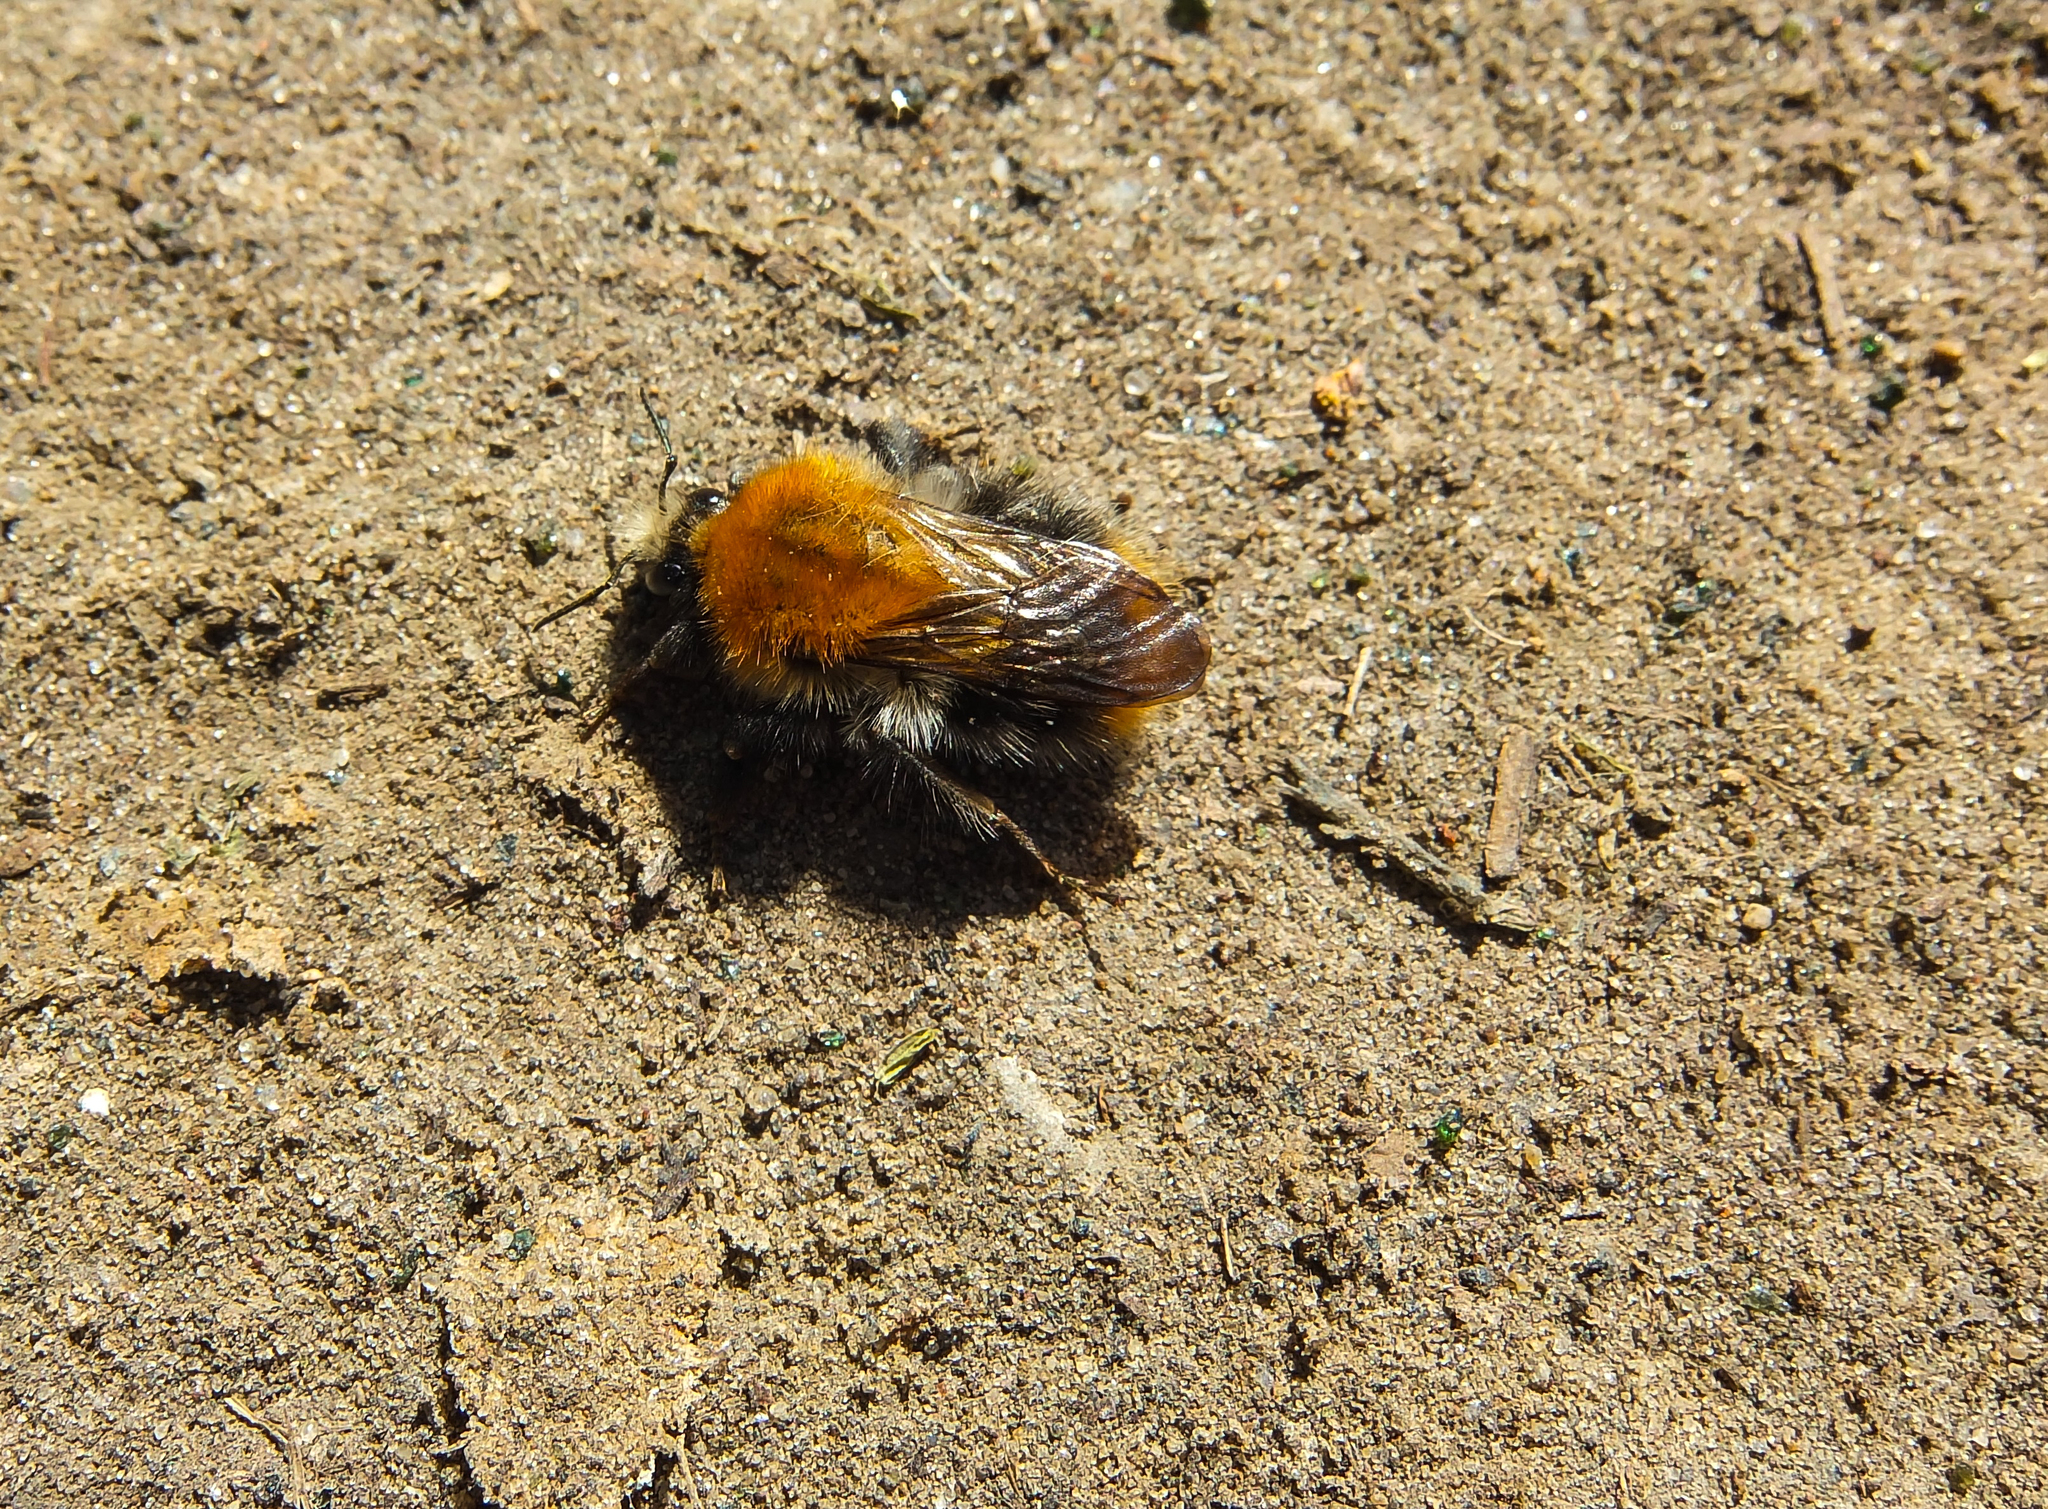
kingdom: Animalia
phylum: Arthropoda
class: Insecta
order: Hymenoptera
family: Apidae
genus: Bombus
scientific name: Bombus pascuorum
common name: Common carder bee
